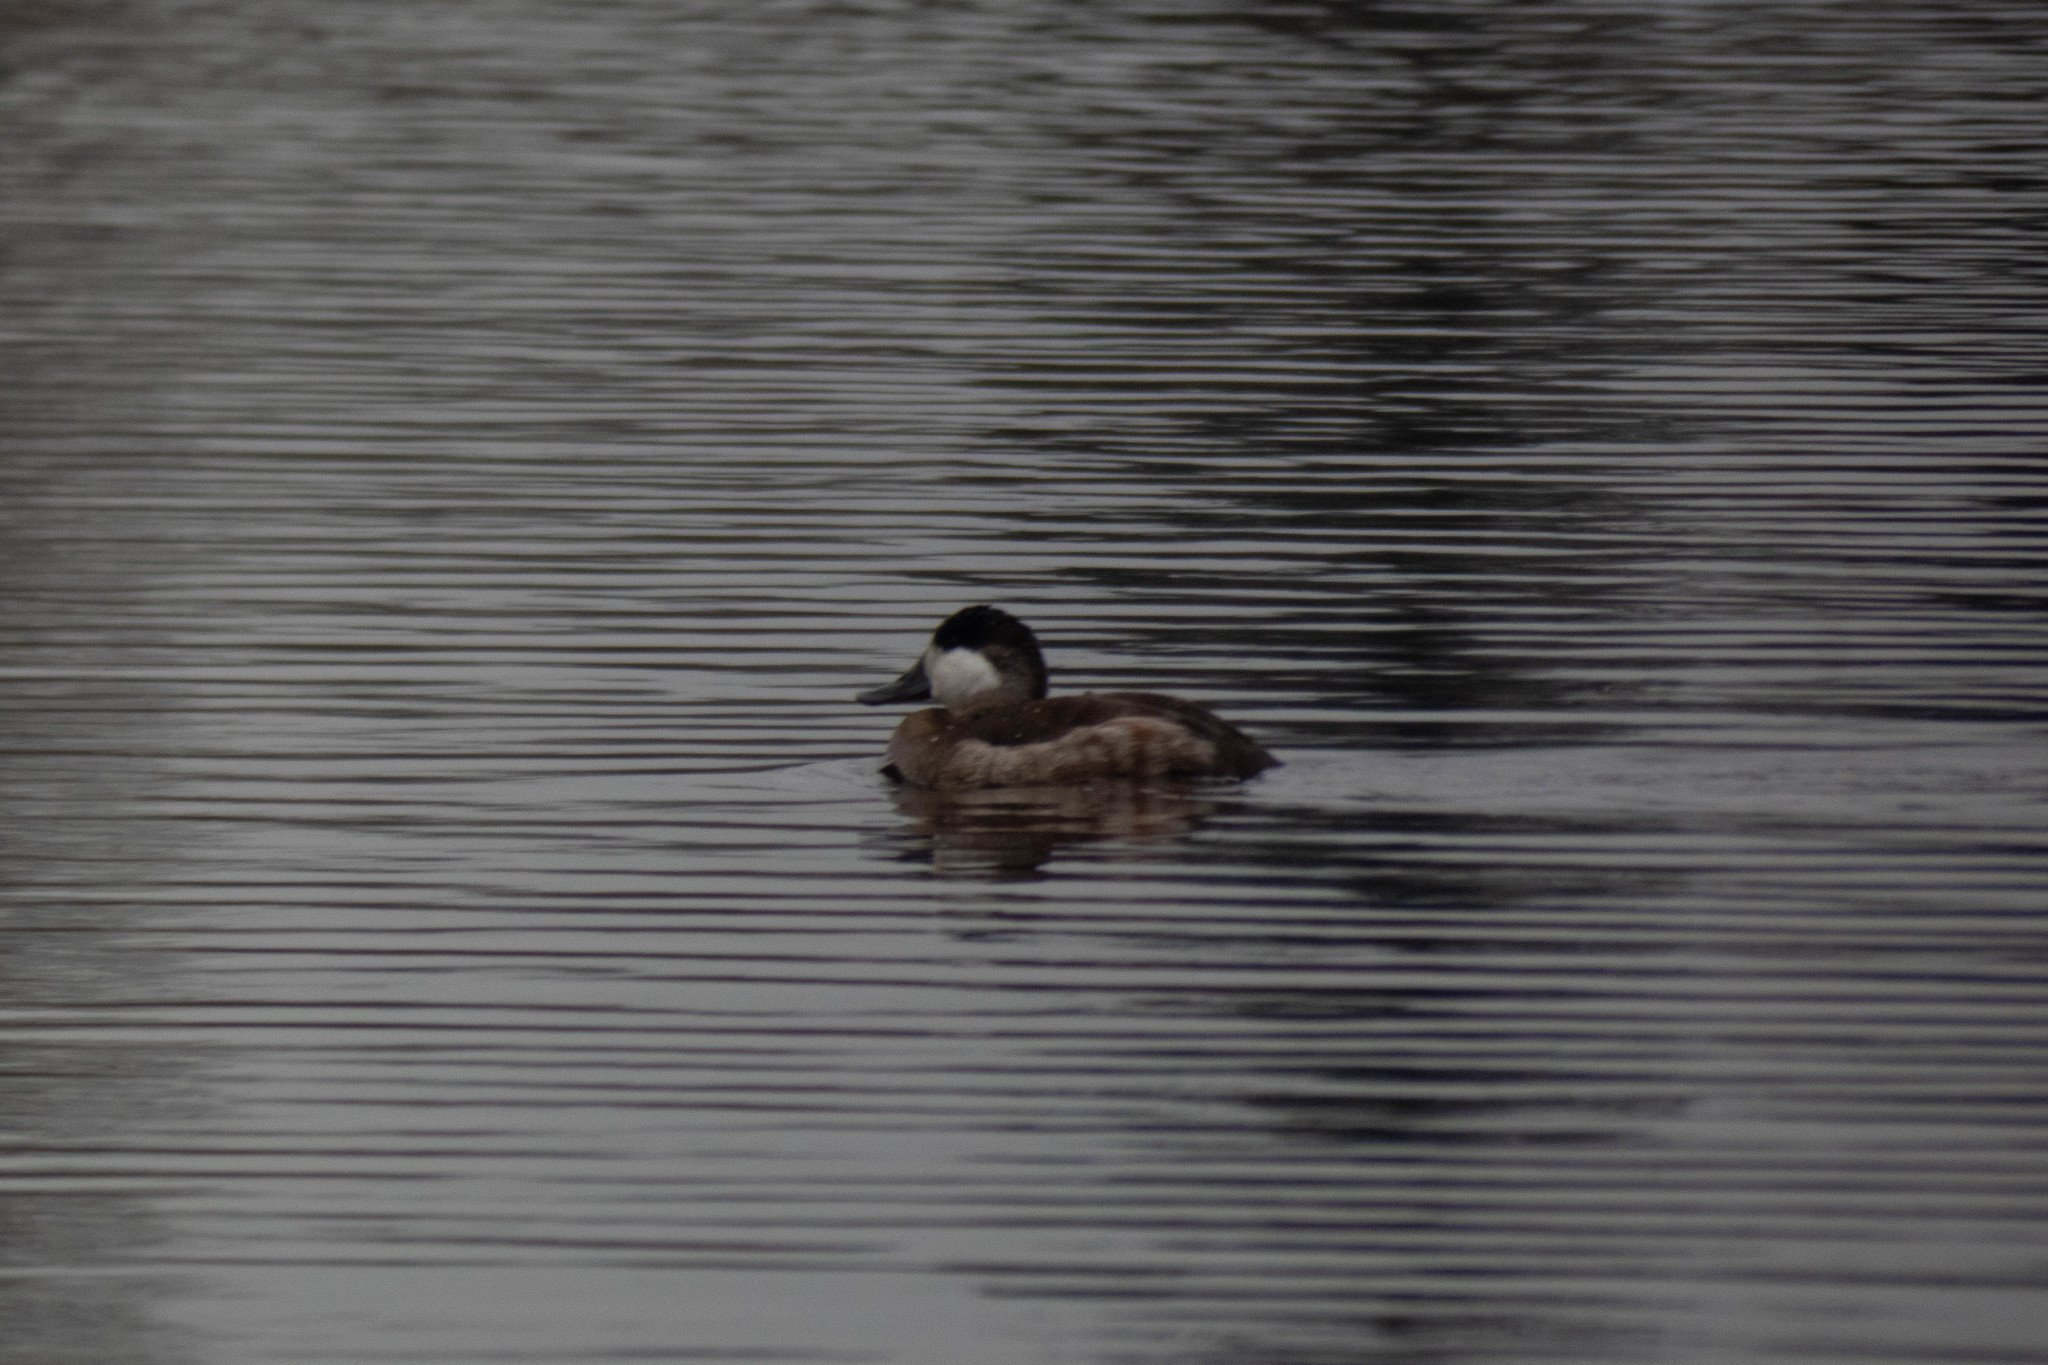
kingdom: Animalia
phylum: Chordata
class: Aves
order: Anseriformes
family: Anatidae
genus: Oxyura
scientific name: Oxyura jamaicensis
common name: Ruddy duck
